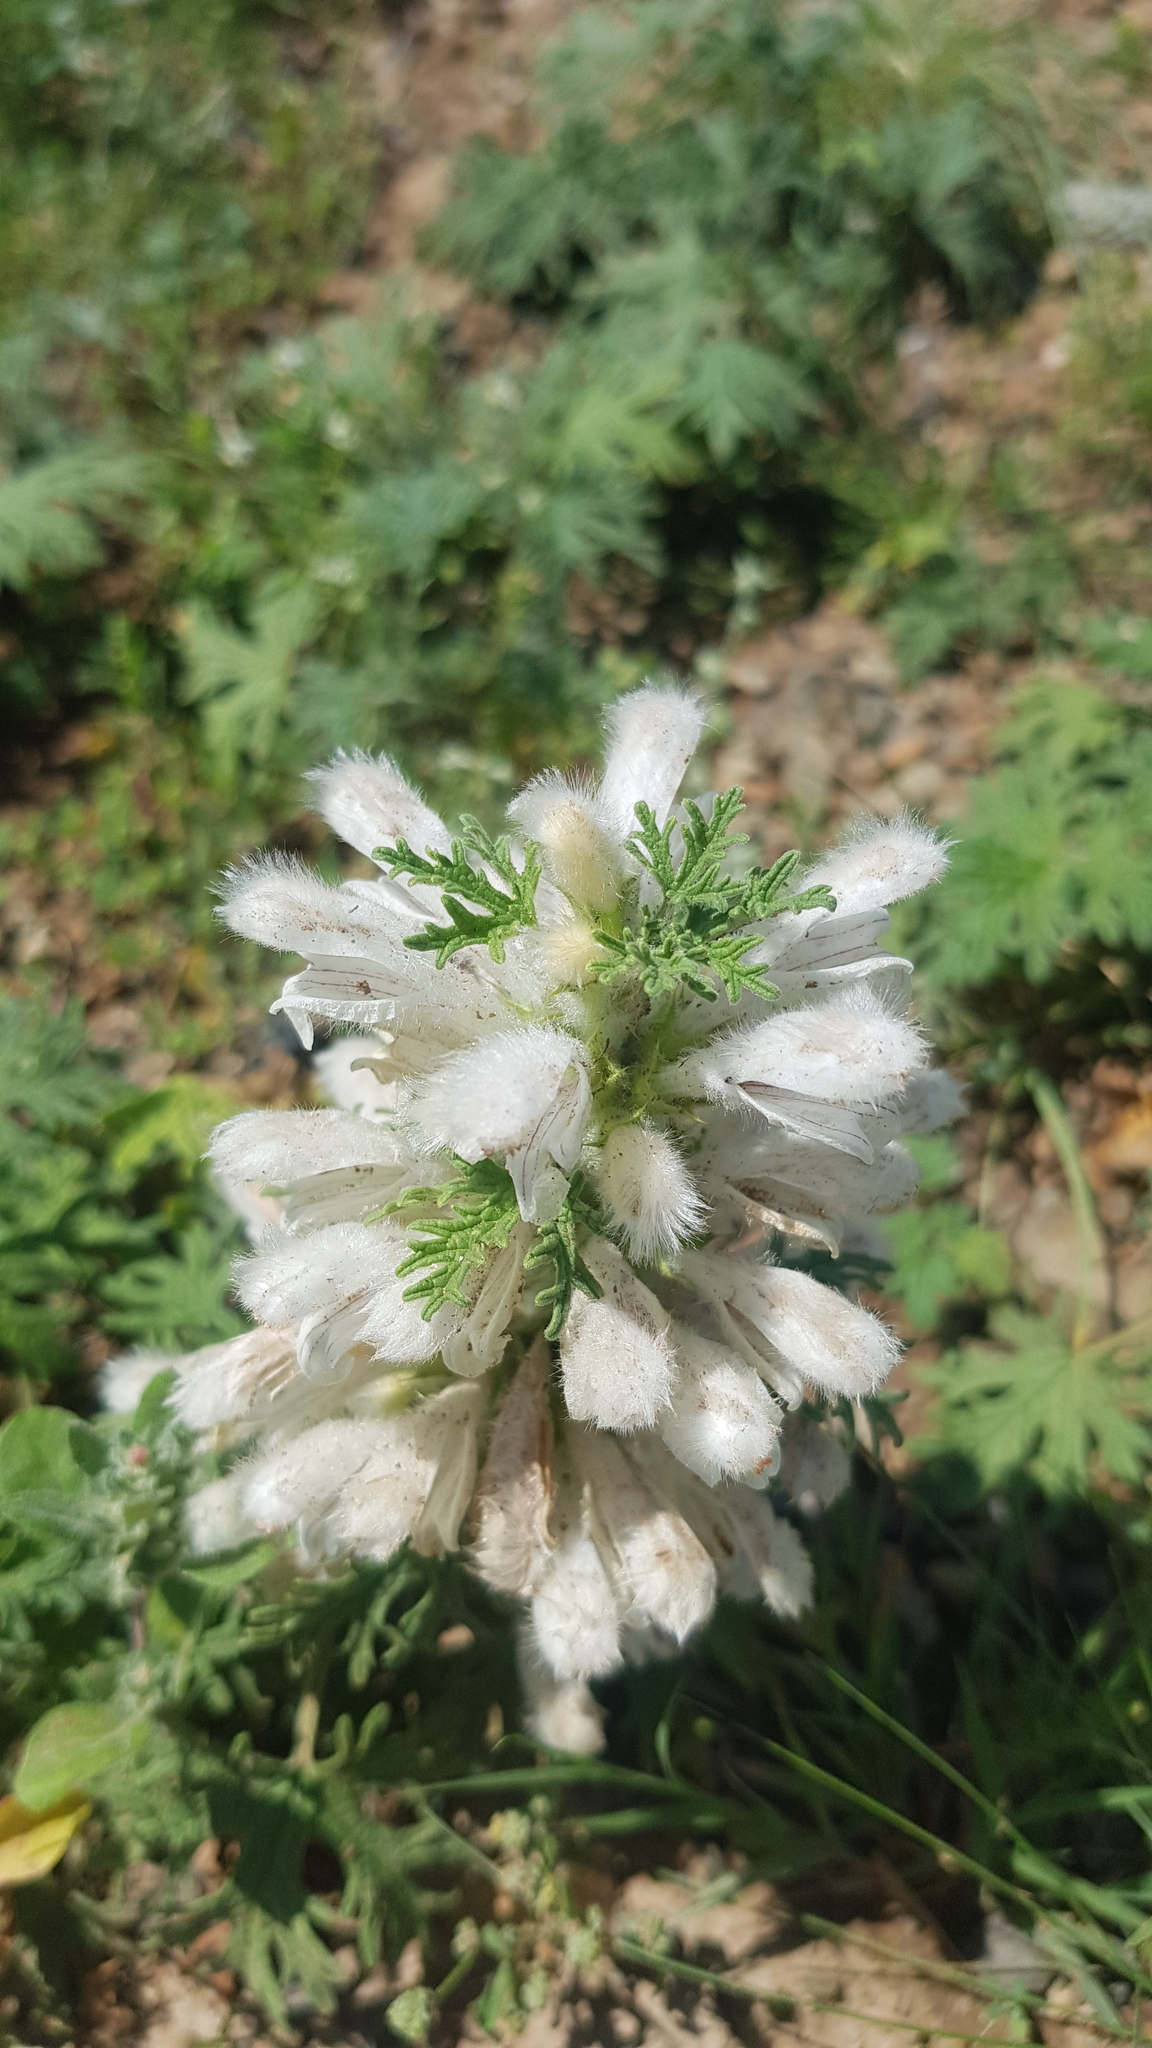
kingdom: Plantae
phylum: Tracheophyta
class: Magnoliopsida
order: Lamiales
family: Lamiaceae
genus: Panzerina
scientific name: Panzerina lanata
